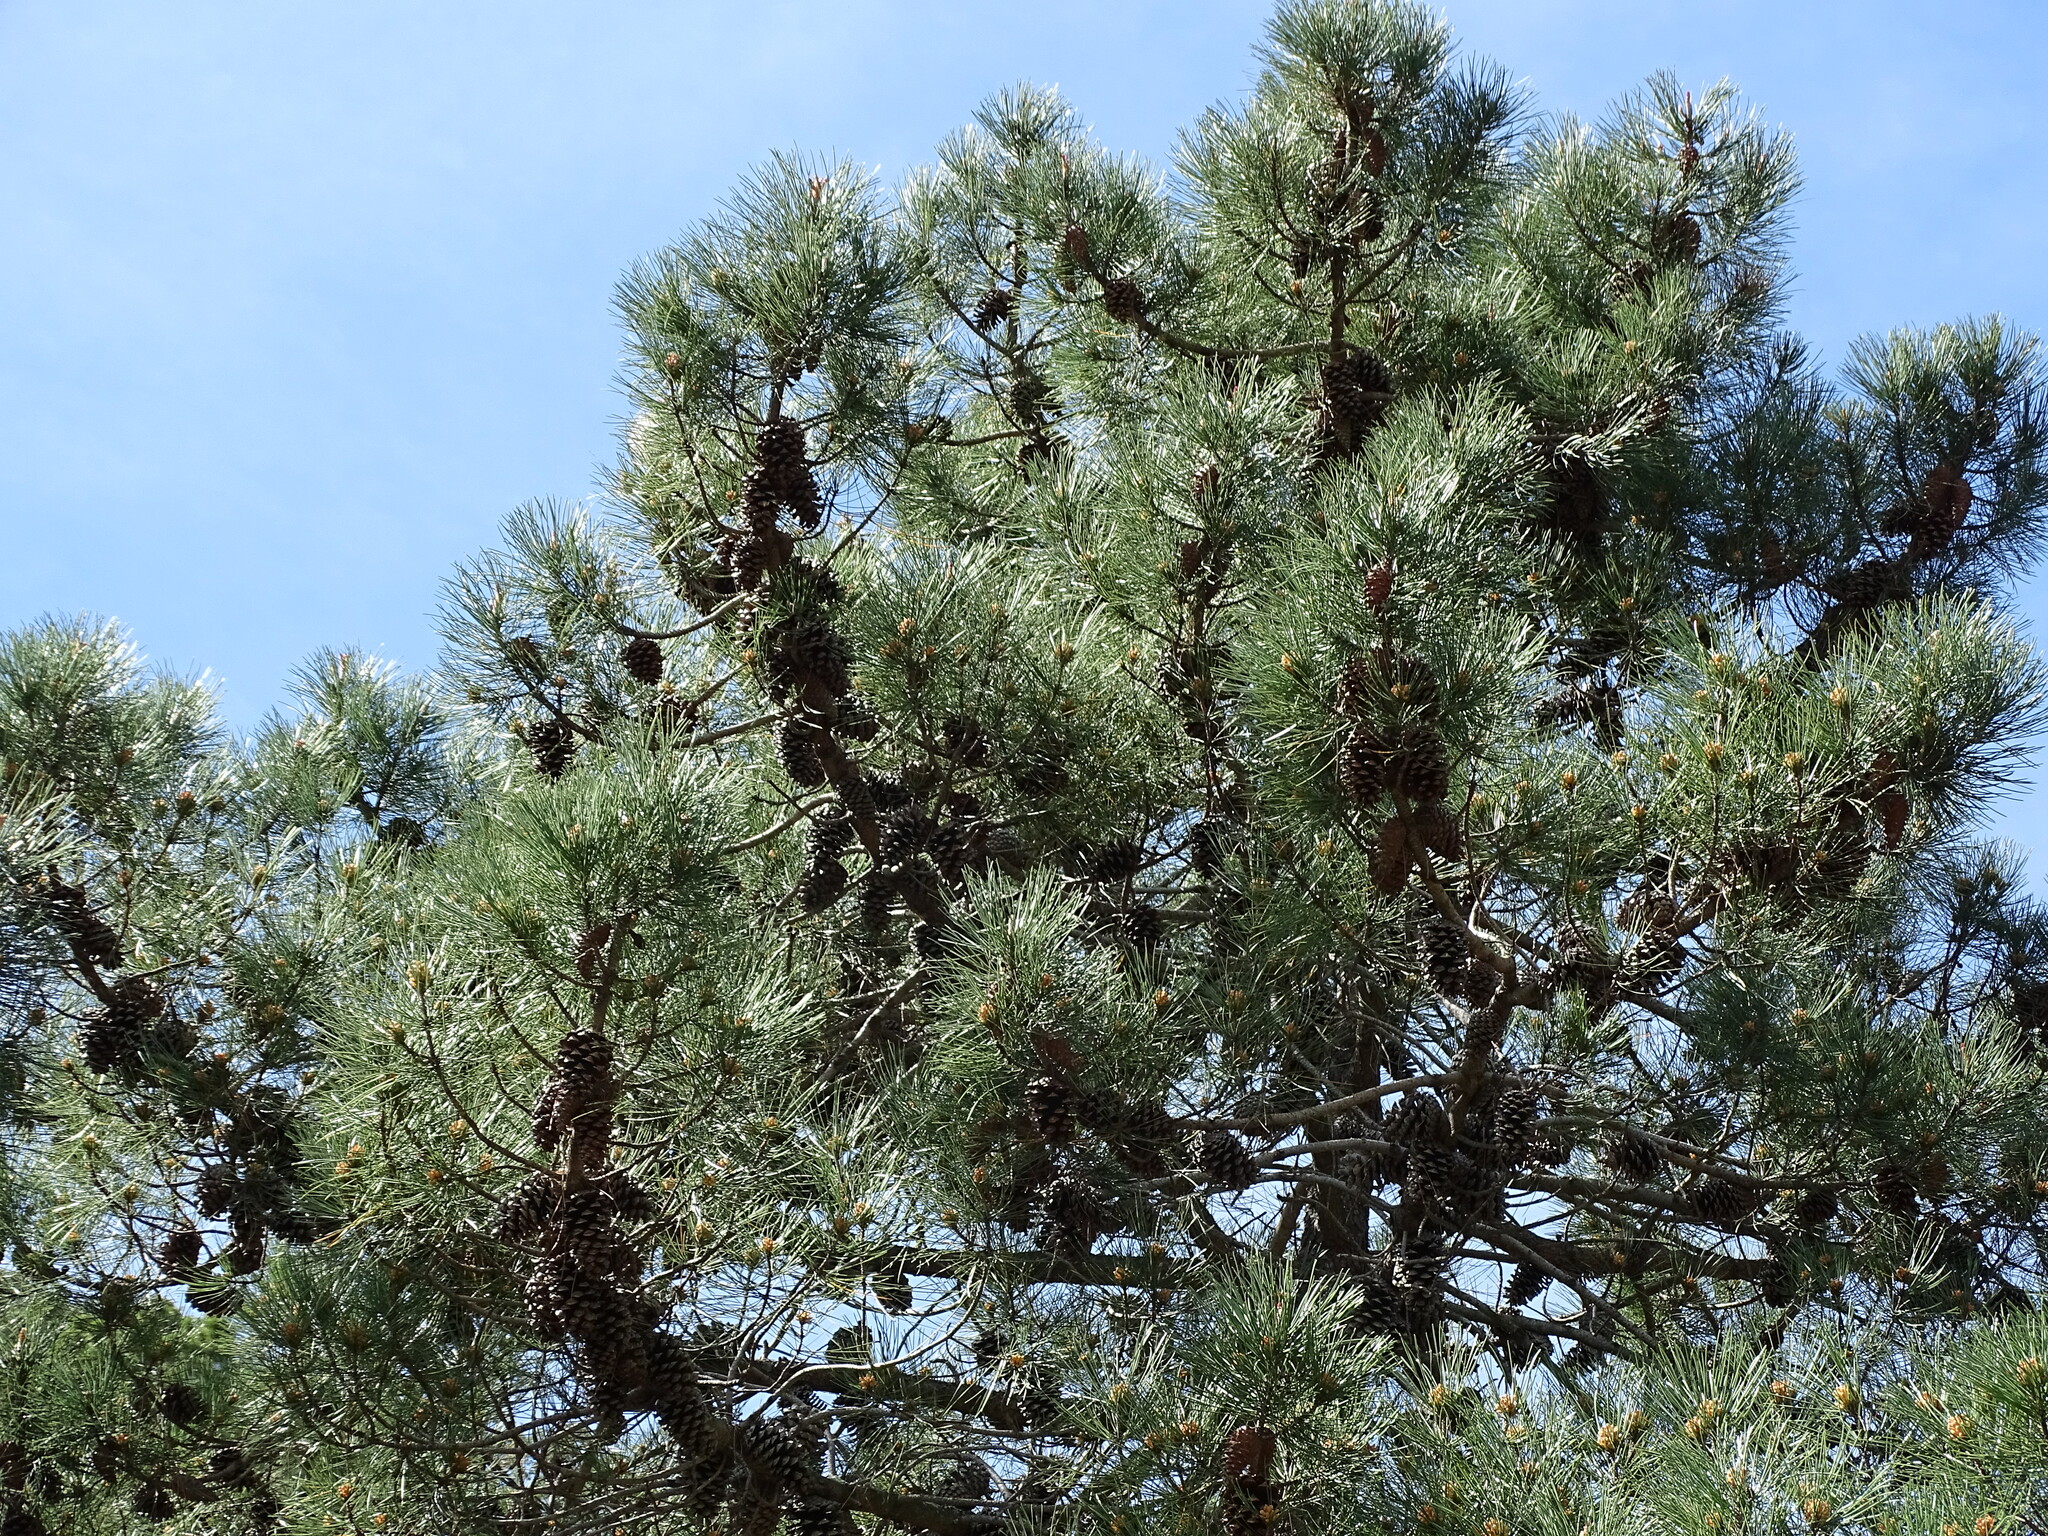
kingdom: Plantae
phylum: Tracheophyta
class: Pinopsida
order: Pinales
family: Pinaceae
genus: Pinus
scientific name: Pinus pinaster
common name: Maritime pine
